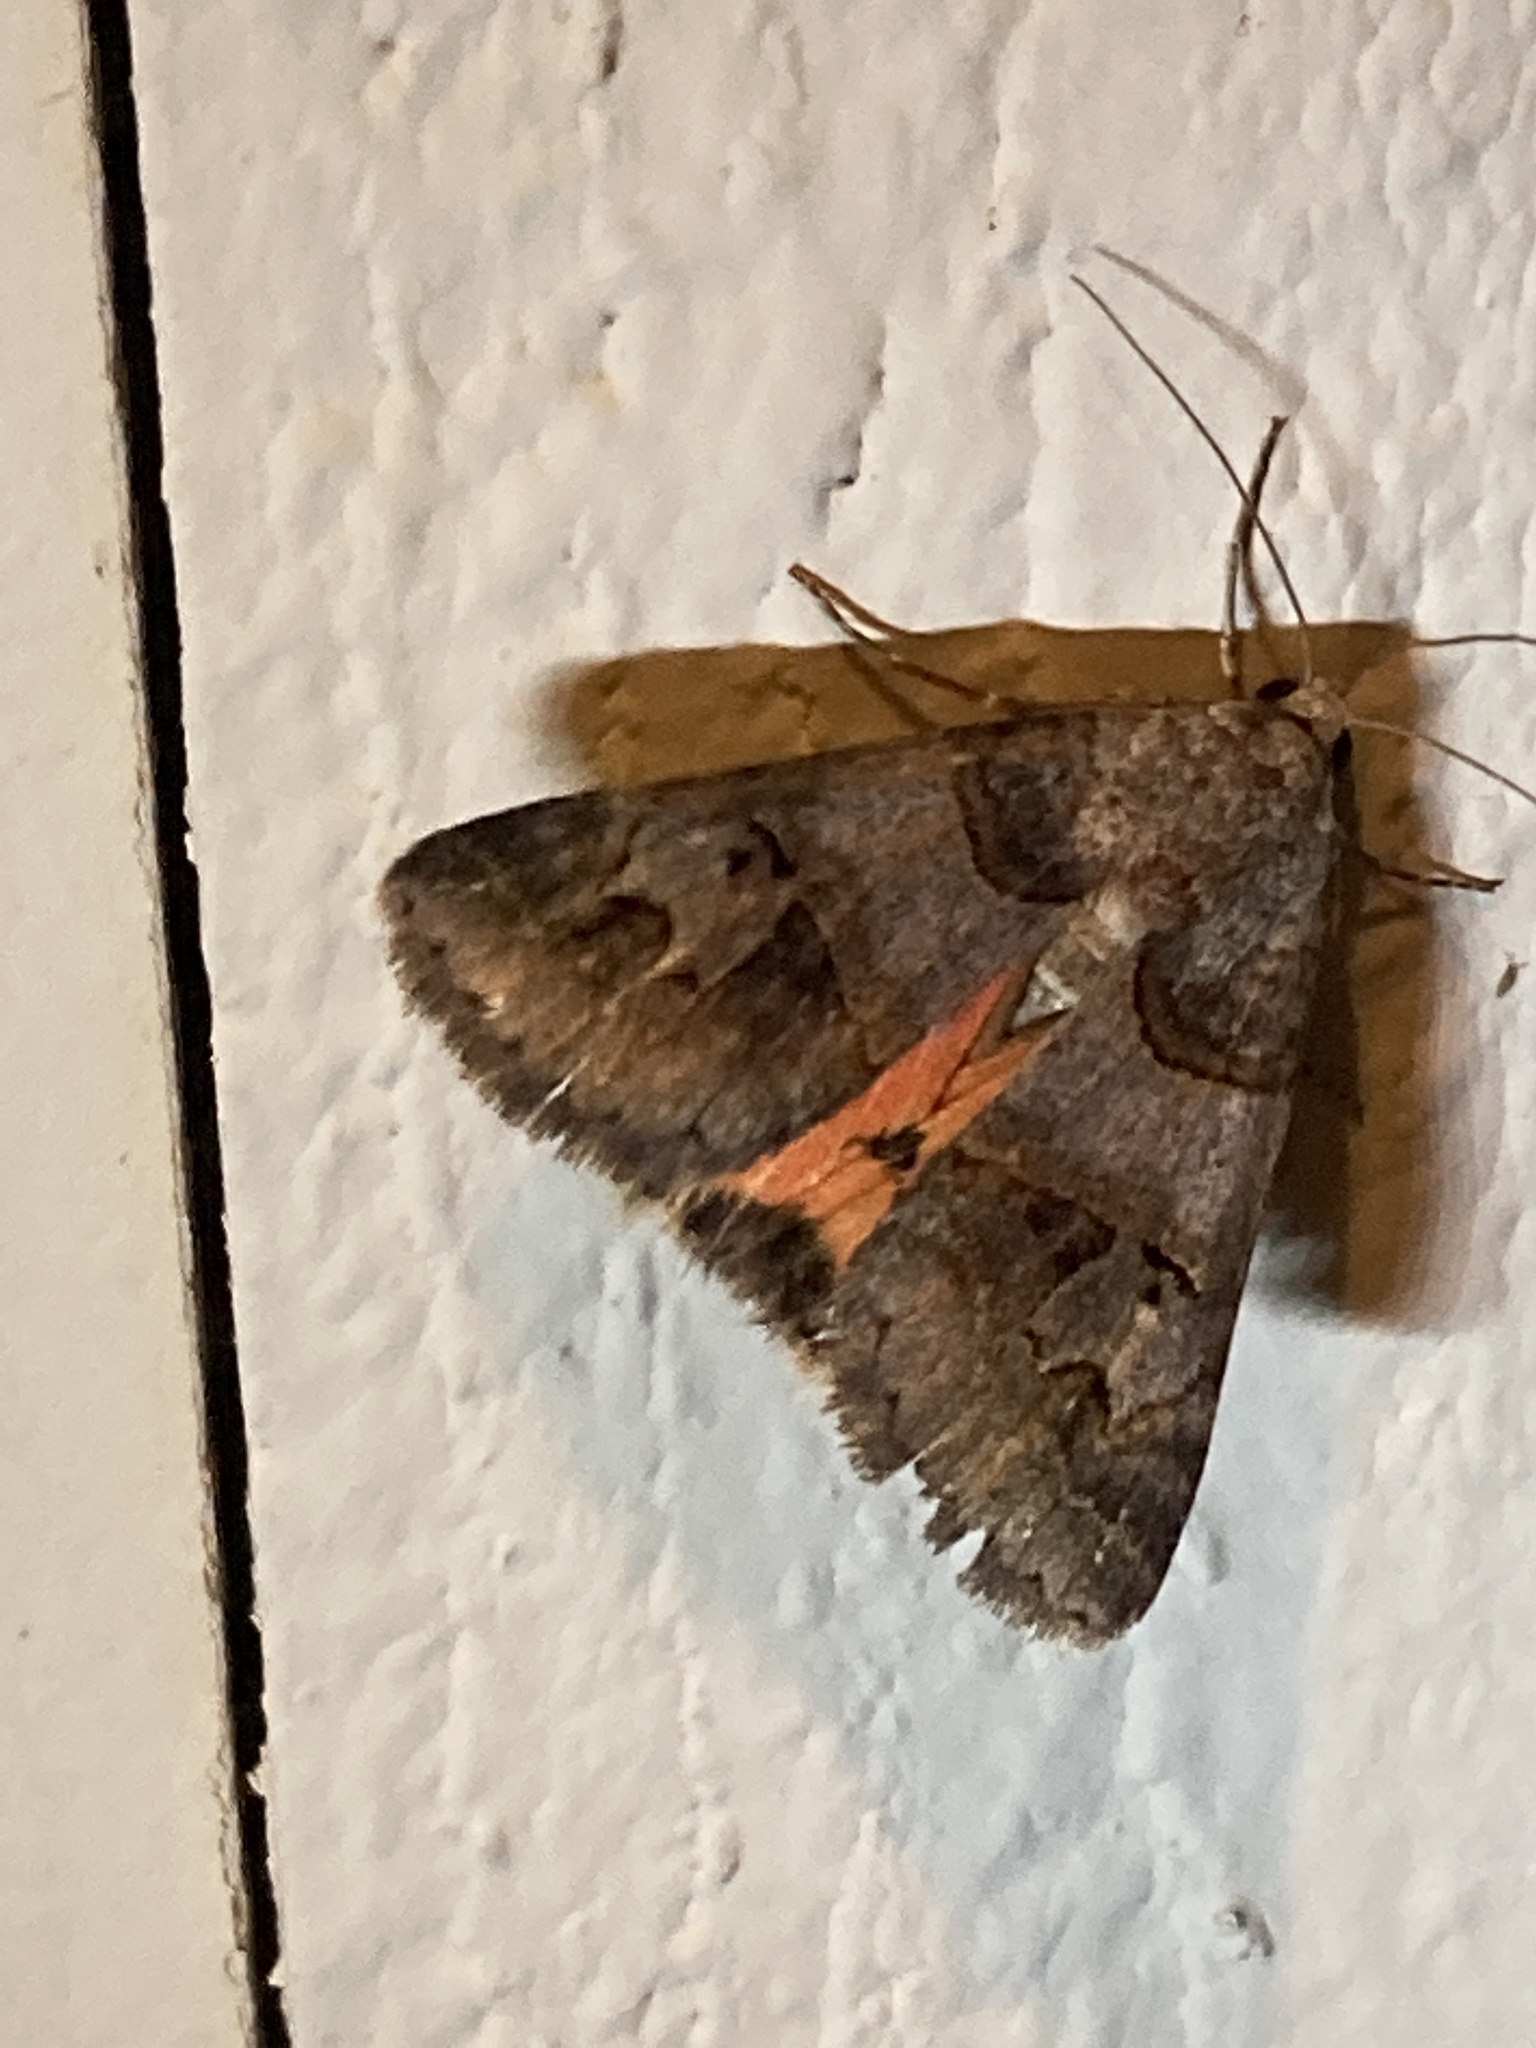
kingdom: Animalia
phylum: Arthropoda
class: Insecta
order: Lepidoptera
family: Erebidae
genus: Drasteria
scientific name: Drasteria ingeniculata
